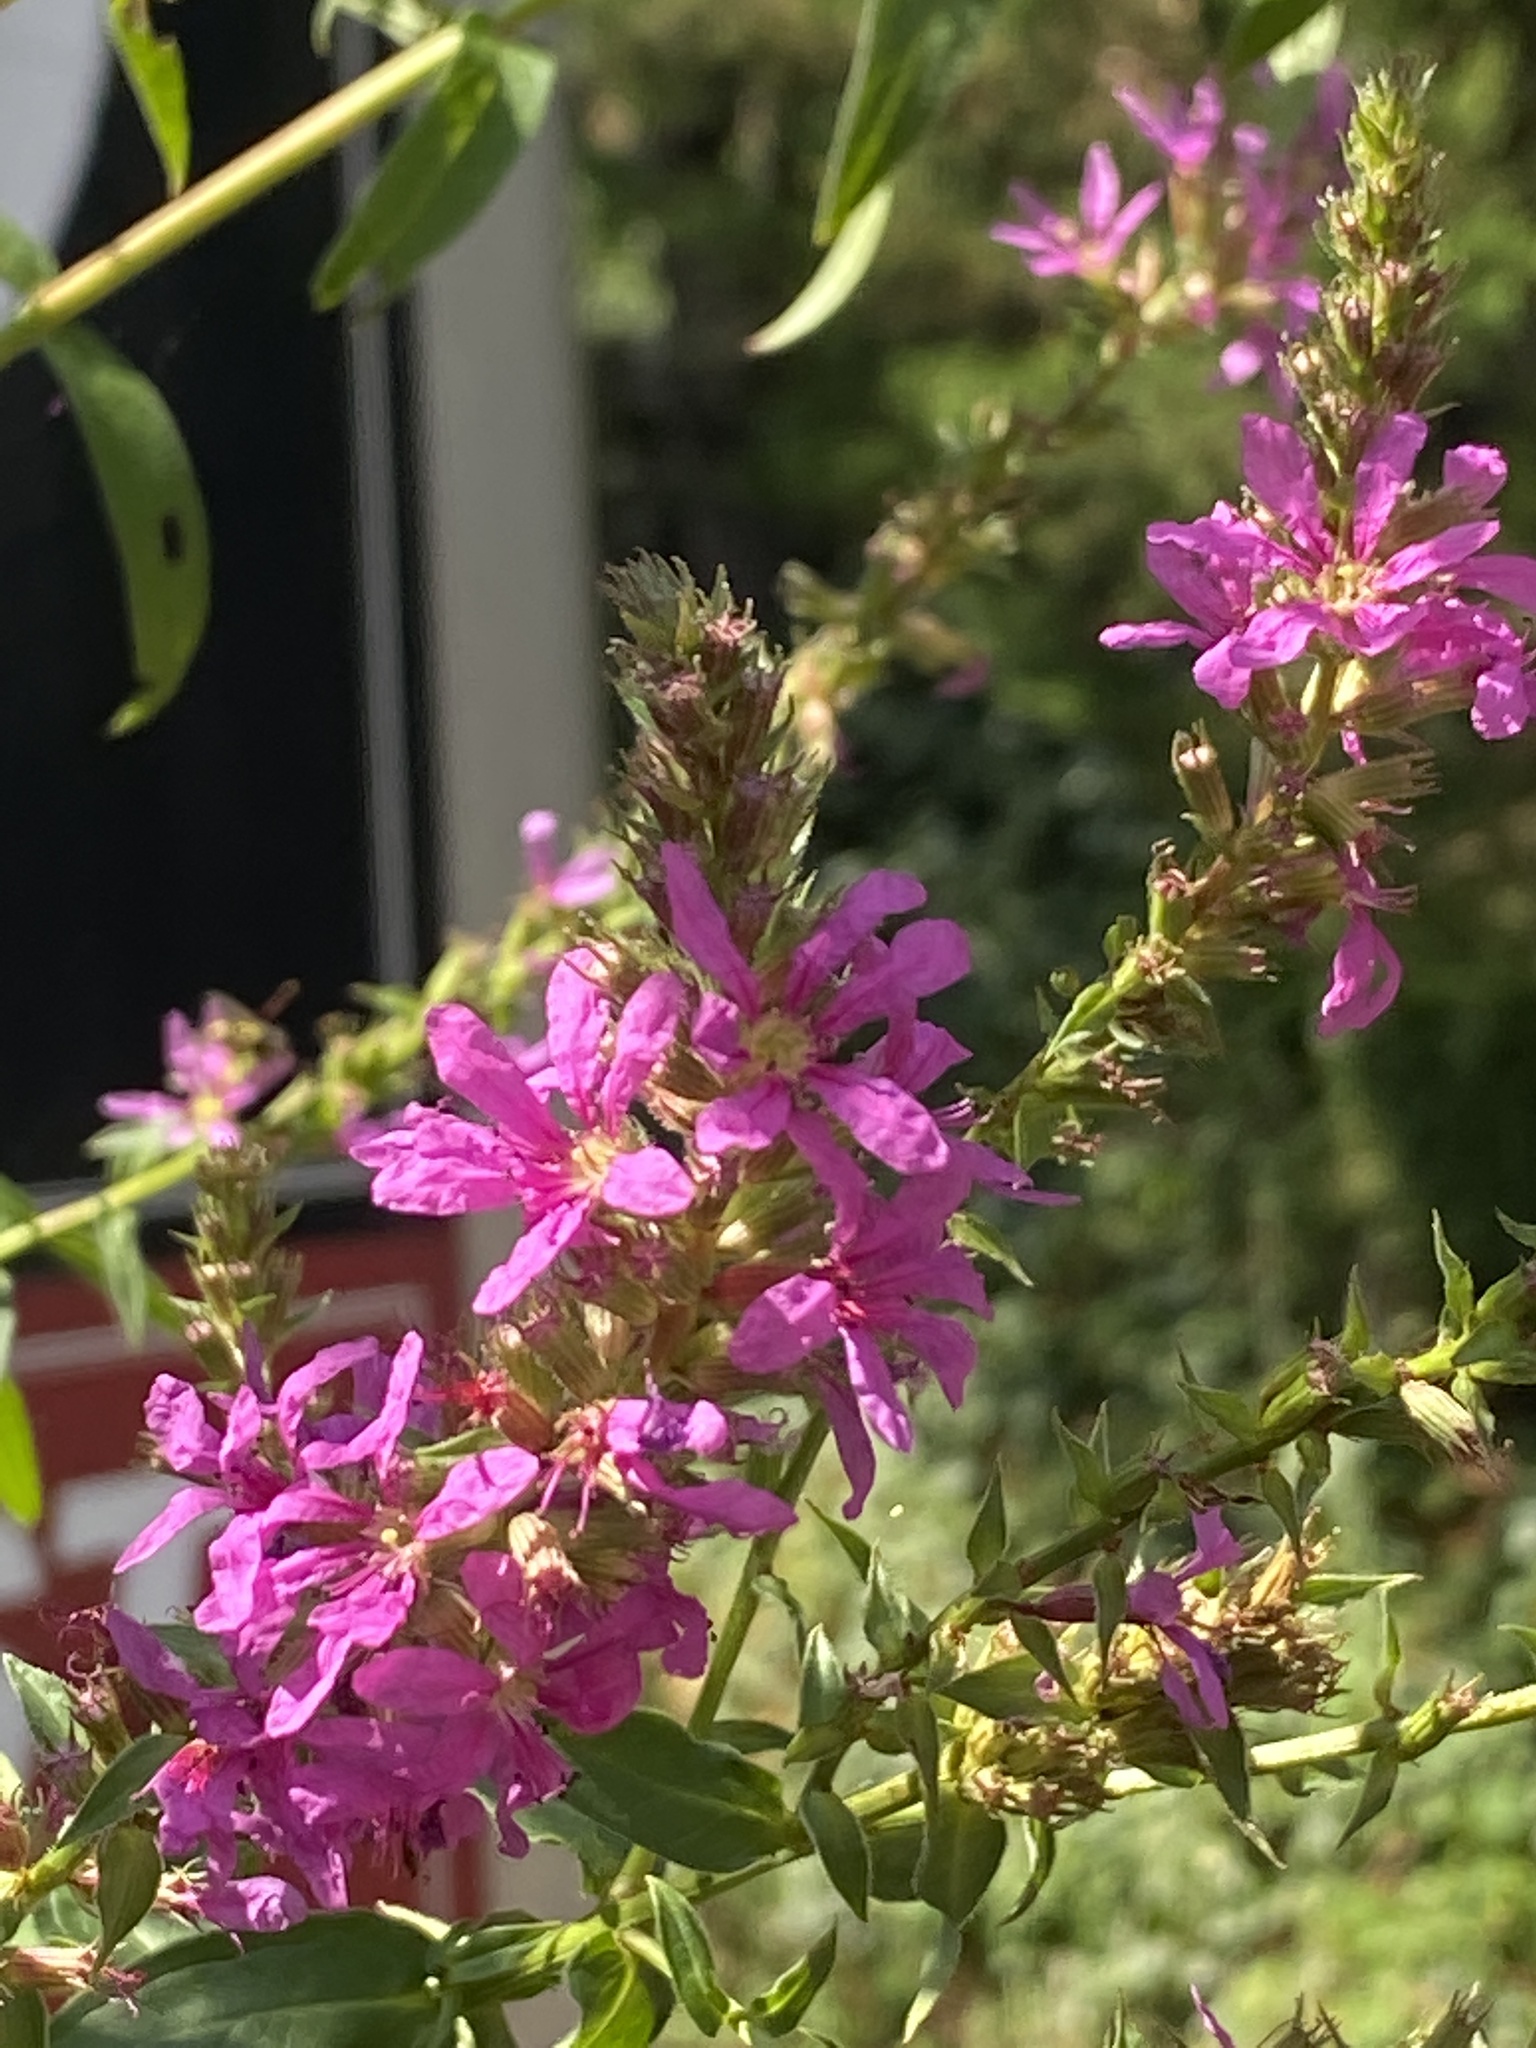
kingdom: Plantae
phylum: Tracheophyta
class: Magnoliopsida
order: Myrtales
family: Lythraceae
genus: Lythrum
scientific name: Lythrum salicaria
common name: Purple loosestrife
